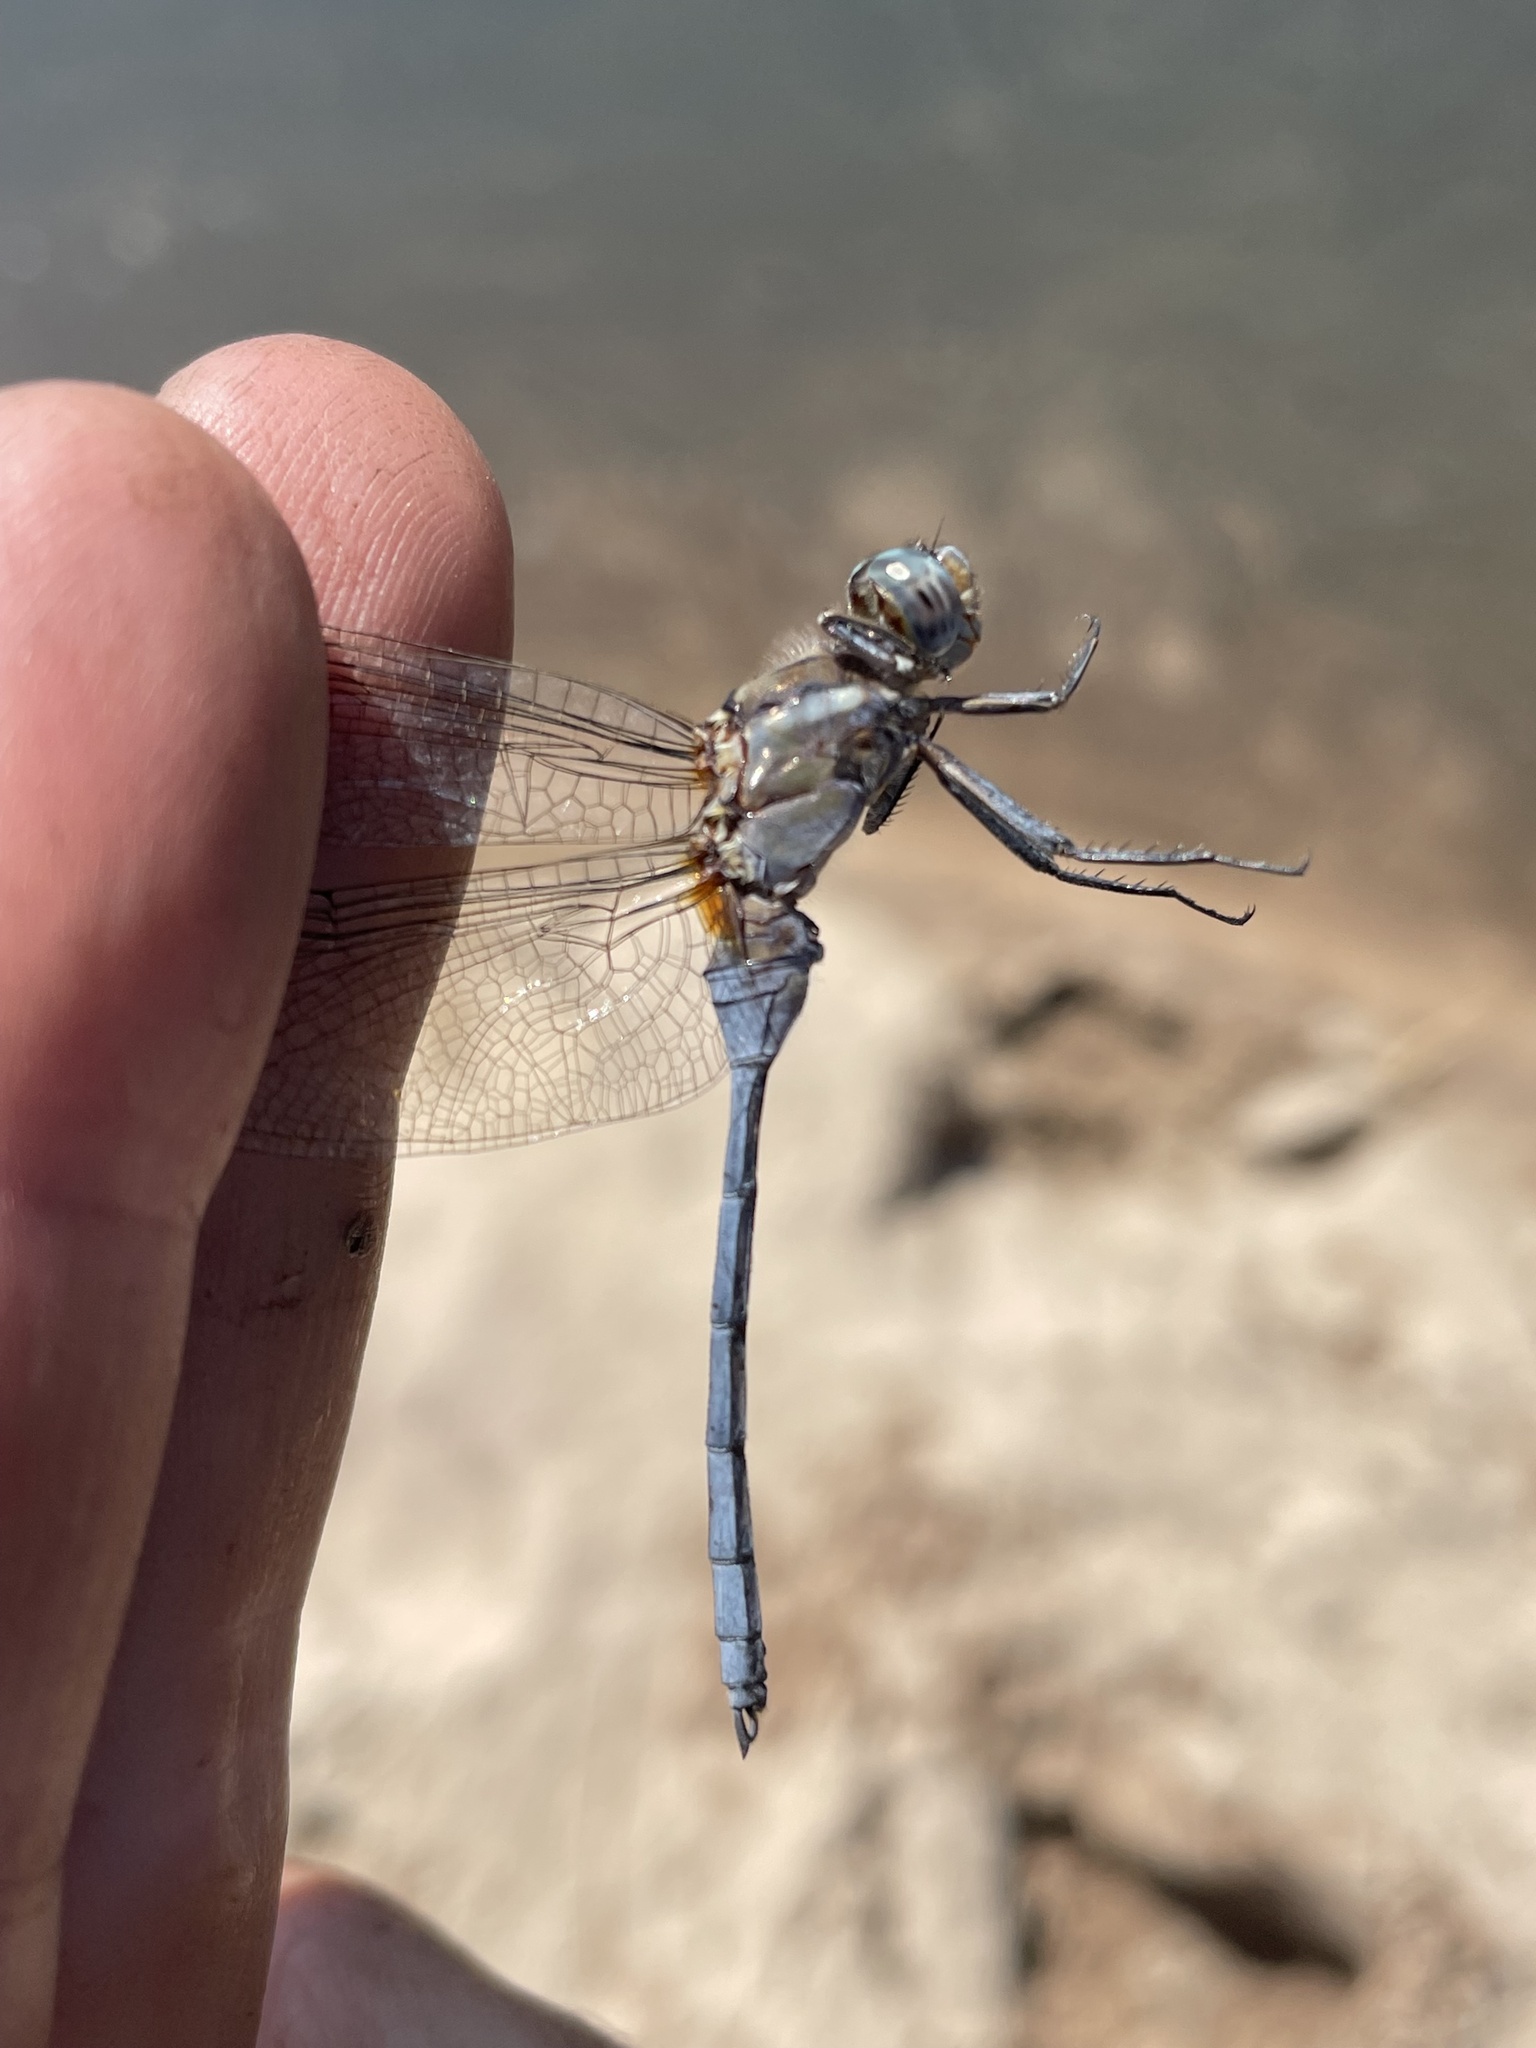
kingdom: Animalia
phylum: Arthropoda
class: Insecta
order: Odonata
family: Libellulidae
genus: Orthetrum
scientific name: Orthetrum chrysostigma
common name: Epaulet skimmer
